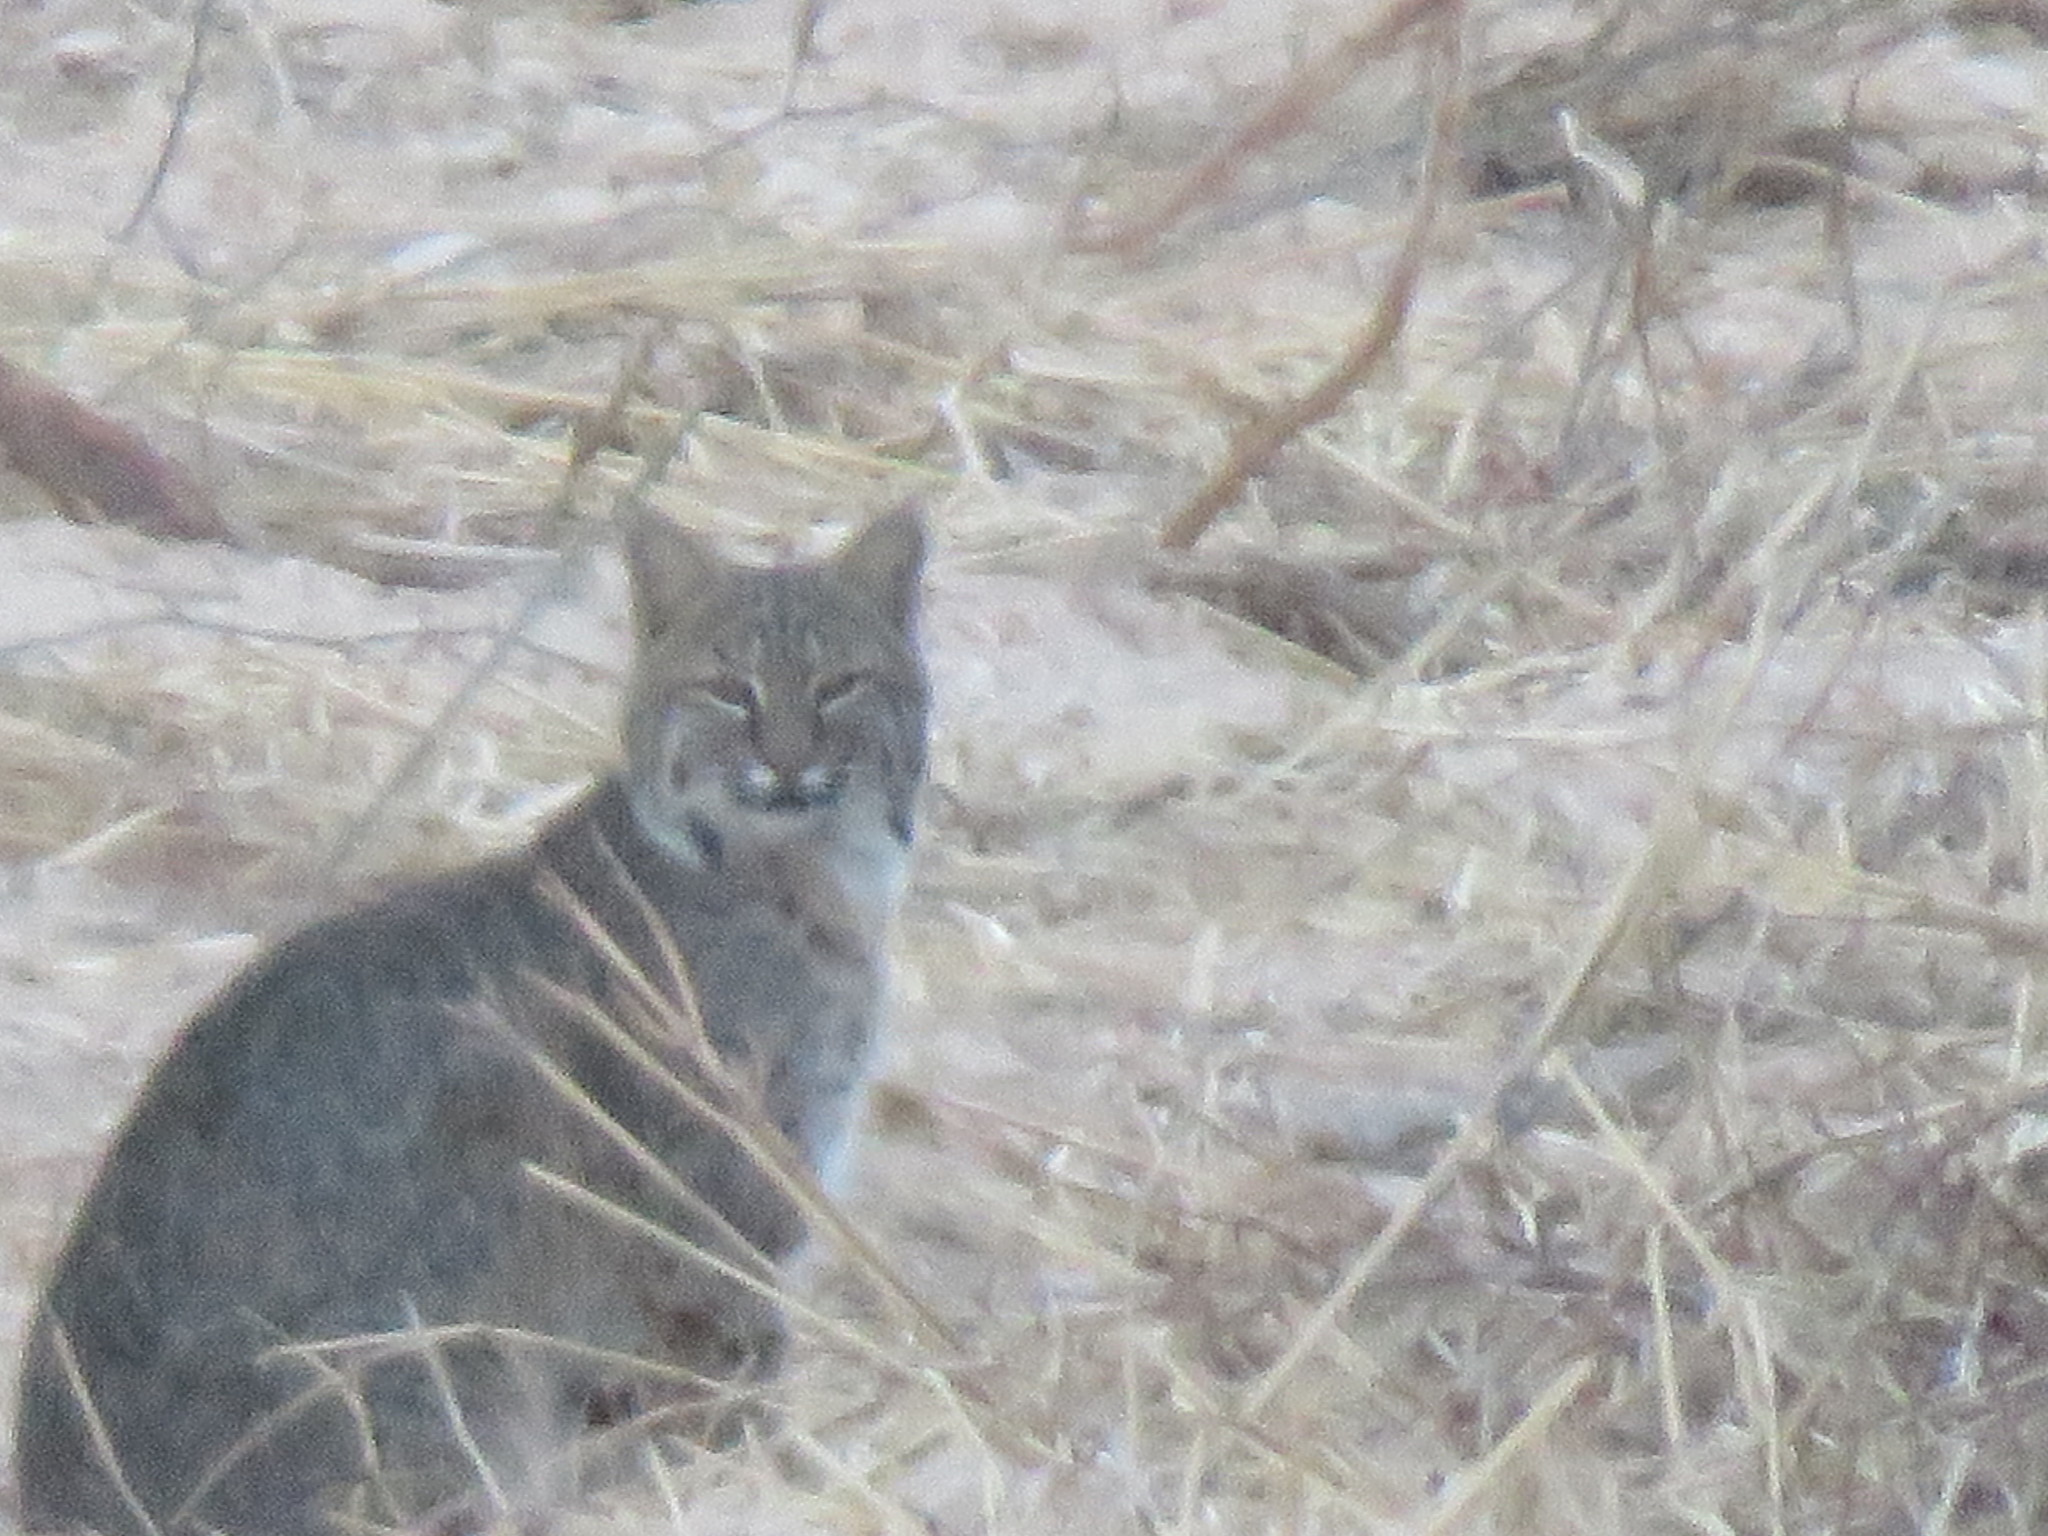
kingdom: Animalia
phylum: Chordata
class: Mammalia
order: Carnivora
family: Felidae
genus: Lynx
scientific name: Lynx rufus
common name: Bobcat
